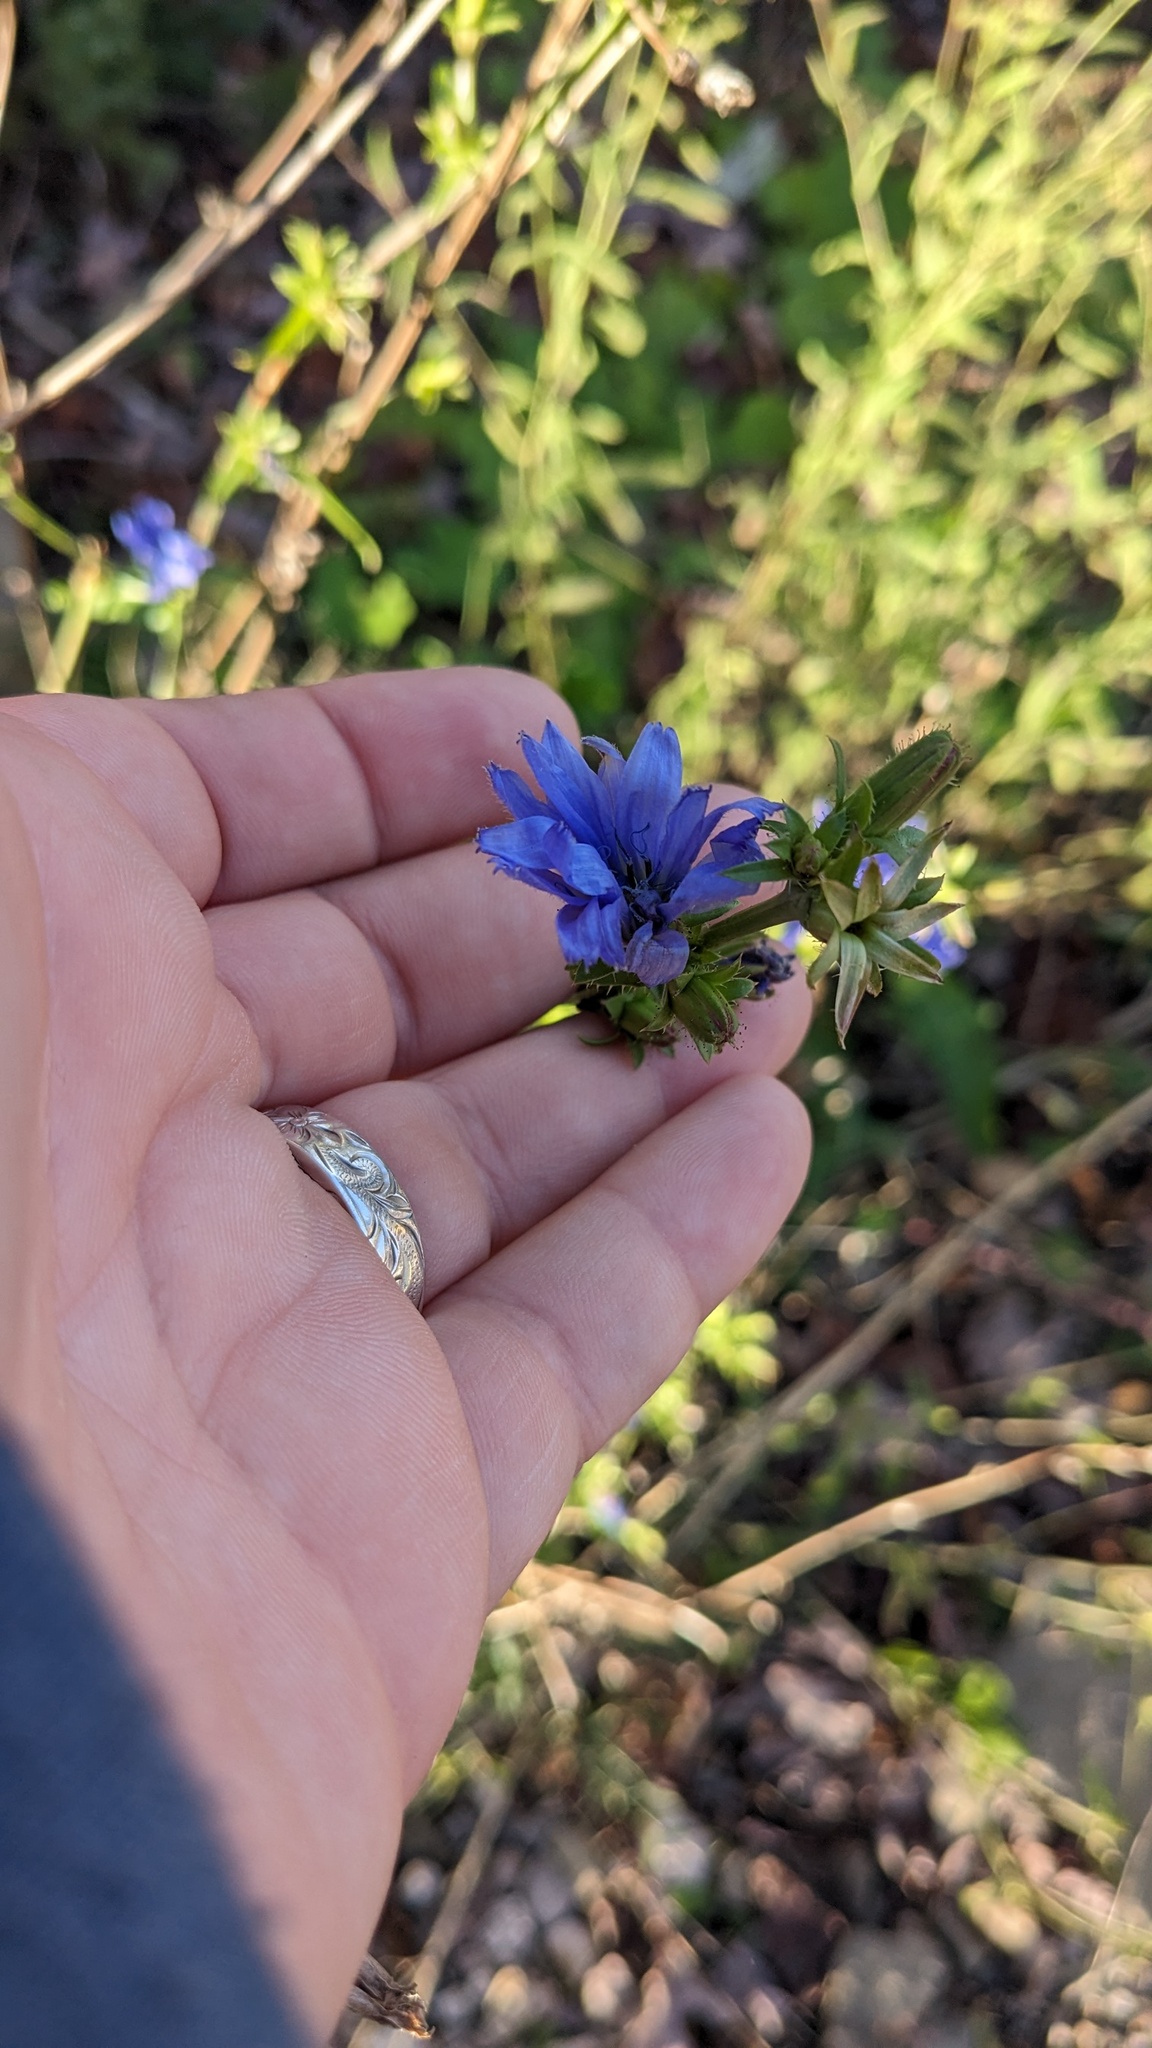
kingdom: Plantae
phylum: Tracheophyta
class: Magnoliopsida
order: Asterales
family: Asteraceae
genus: Cichorium
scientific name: Cichorium intybus
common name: Chicory
